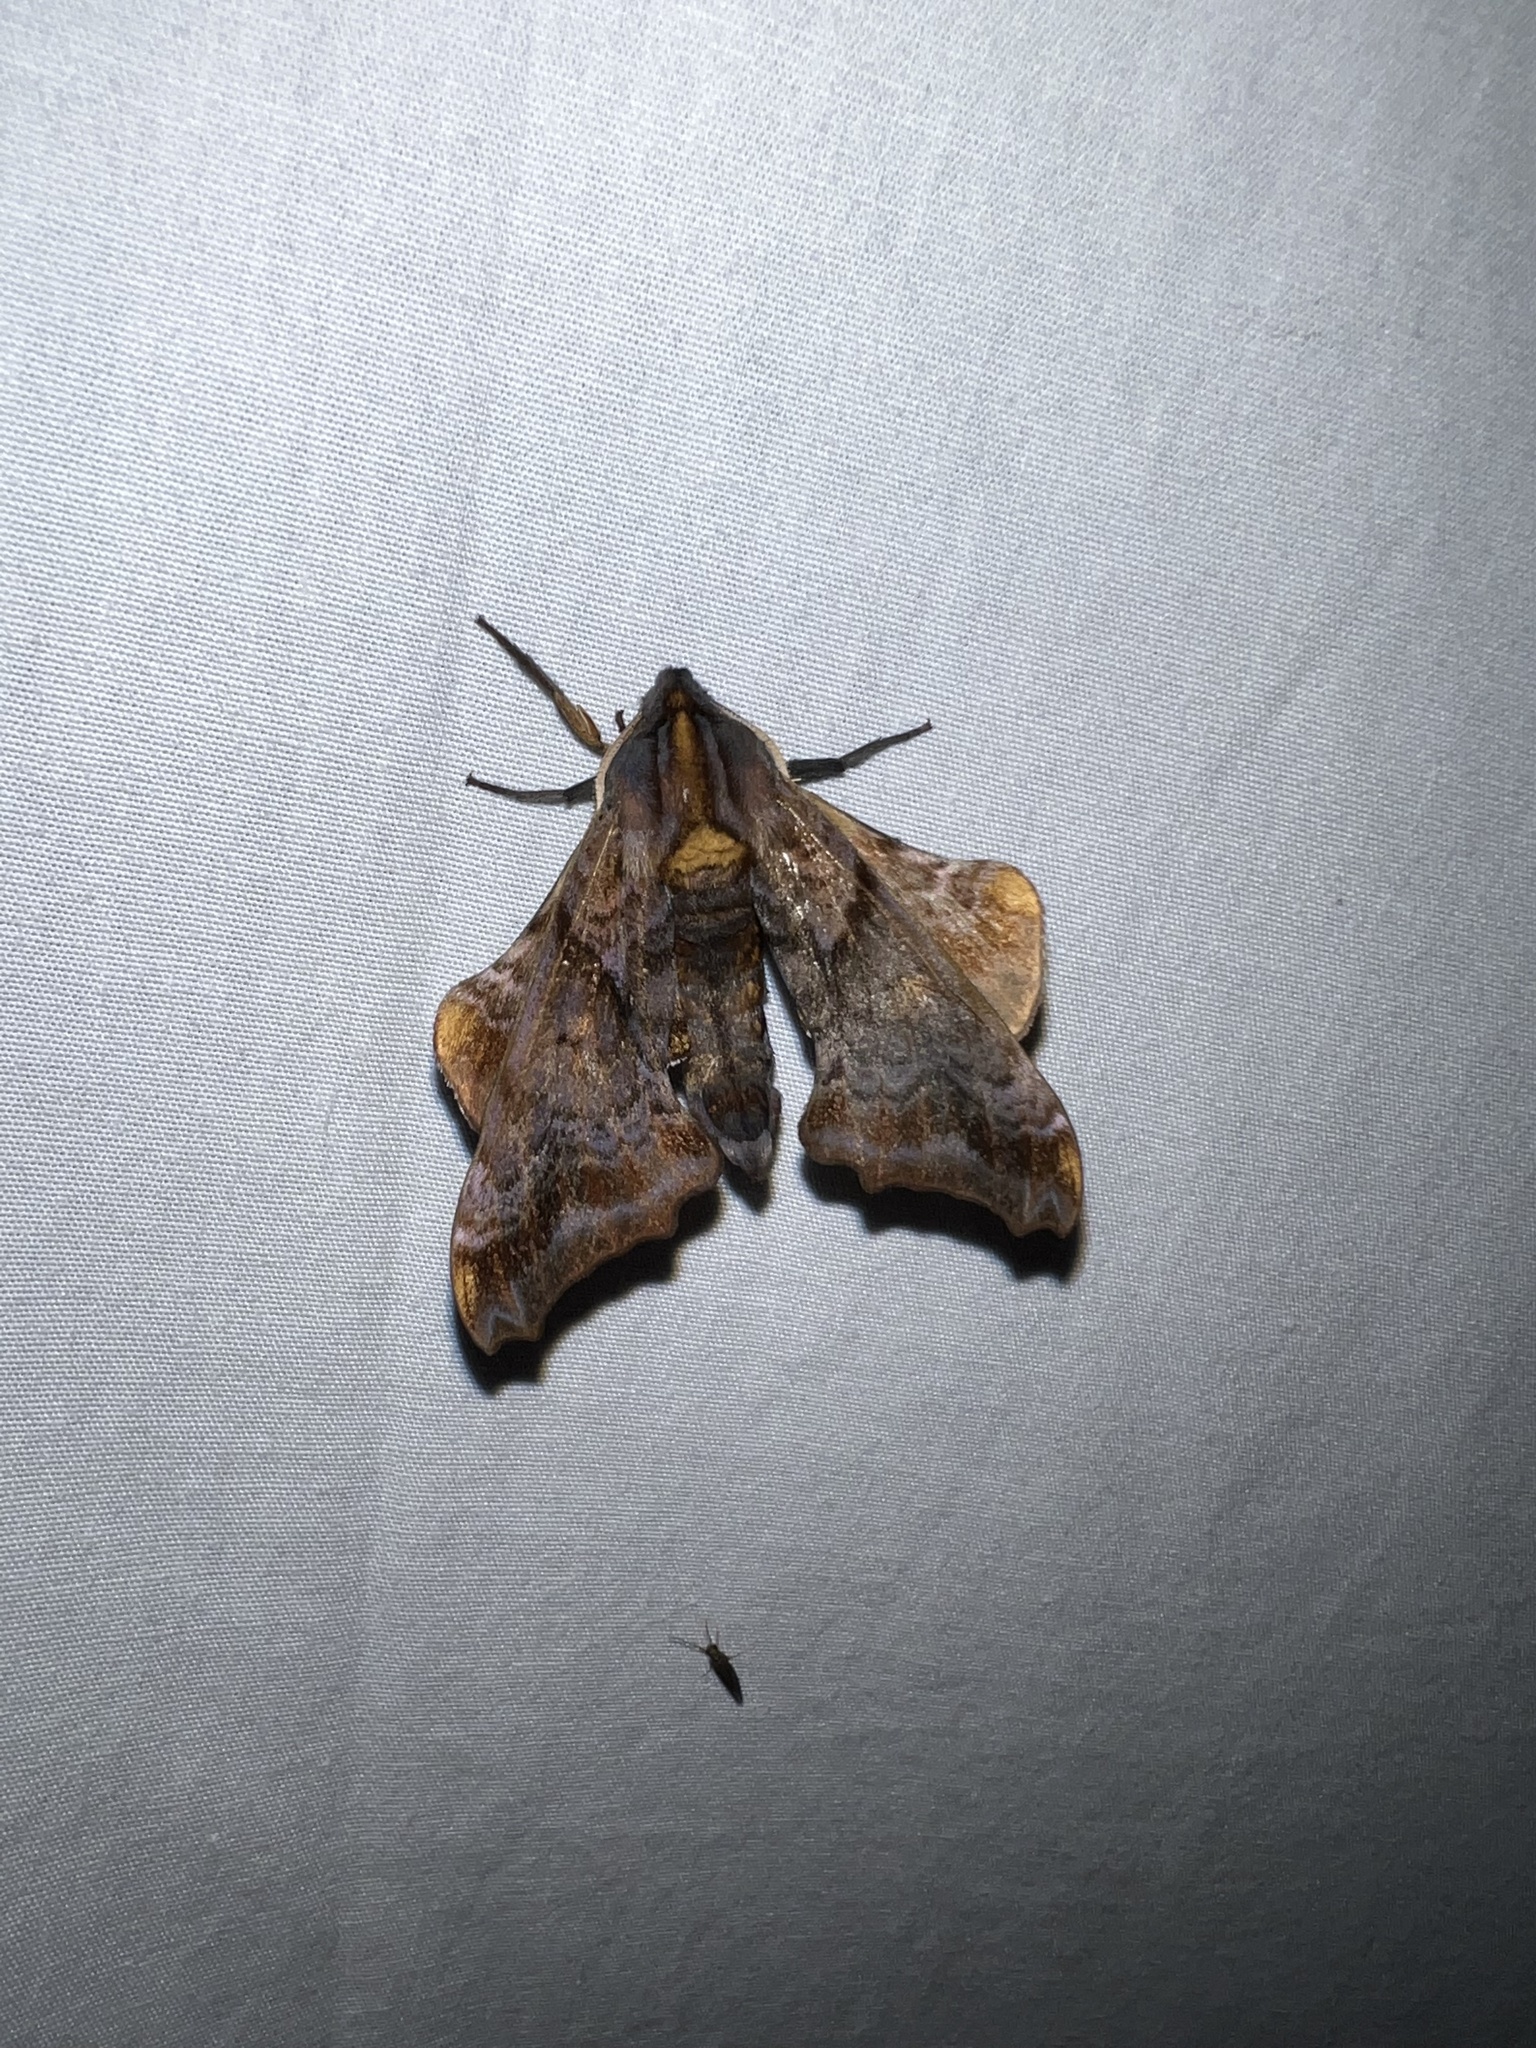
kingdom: Animalia
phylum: Arthropoda
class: Insecta
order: Lepidoptera
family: Sphingidae
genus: Paonias
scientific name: Paonias myops
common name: Small-eyed sphinx
